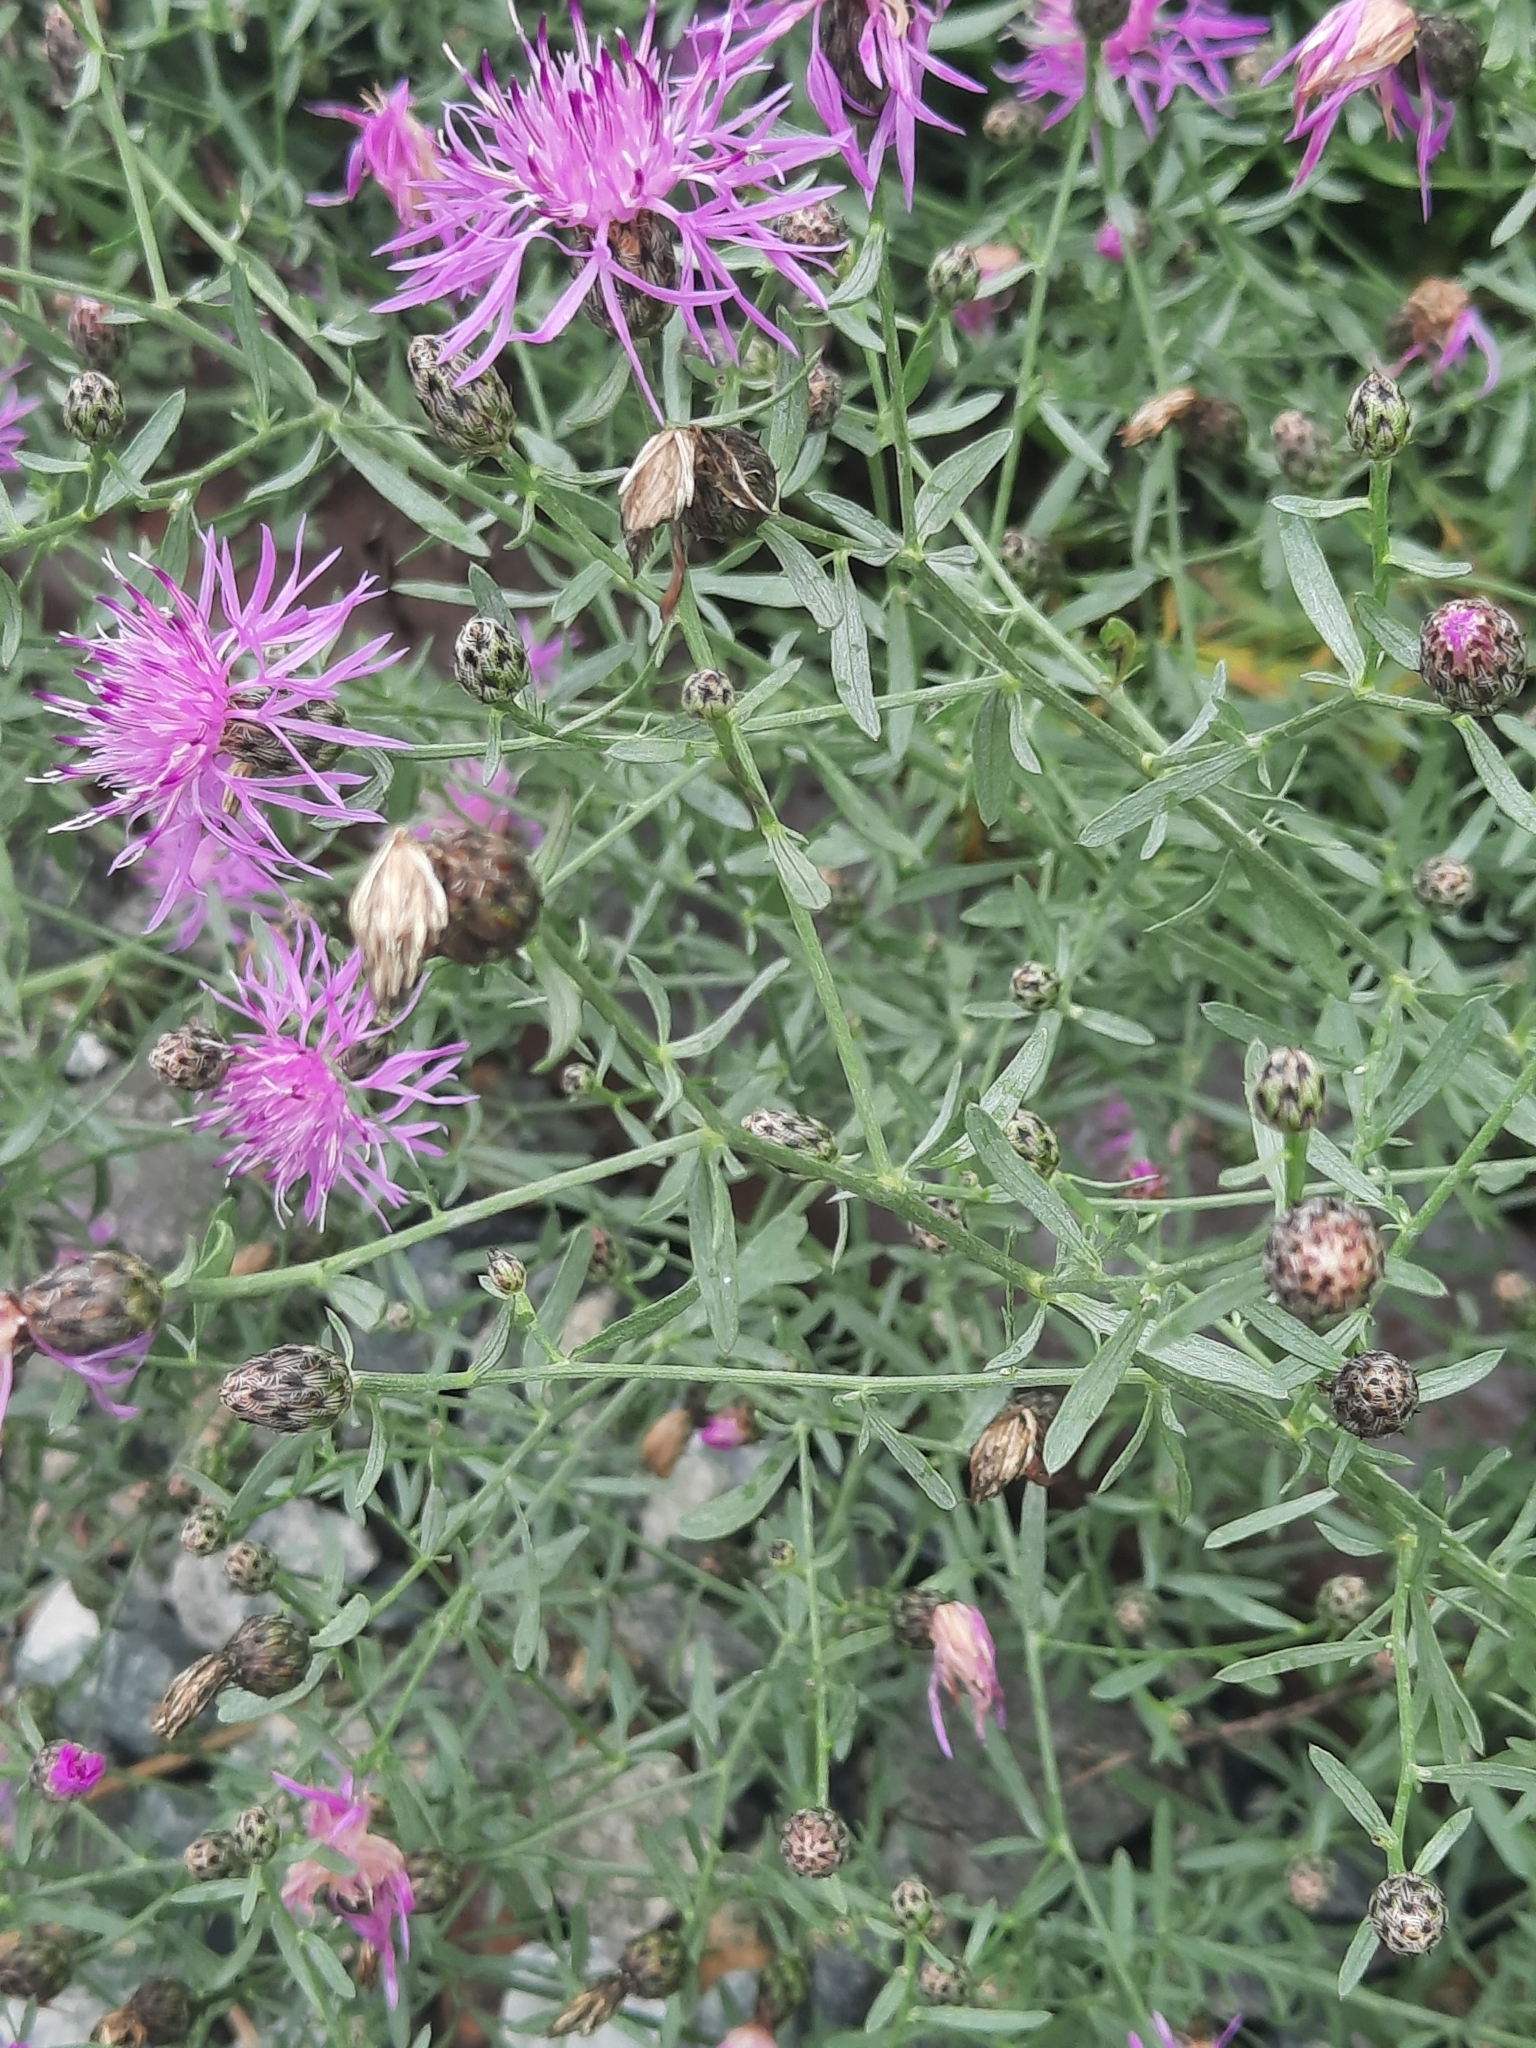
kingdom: Plantae
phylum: Tracheophyta
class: Magnoliopsida
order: Asterales
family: Asteraceae
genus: Centaurea
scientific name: Centaurea stoebe
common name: Spotted knapweed
